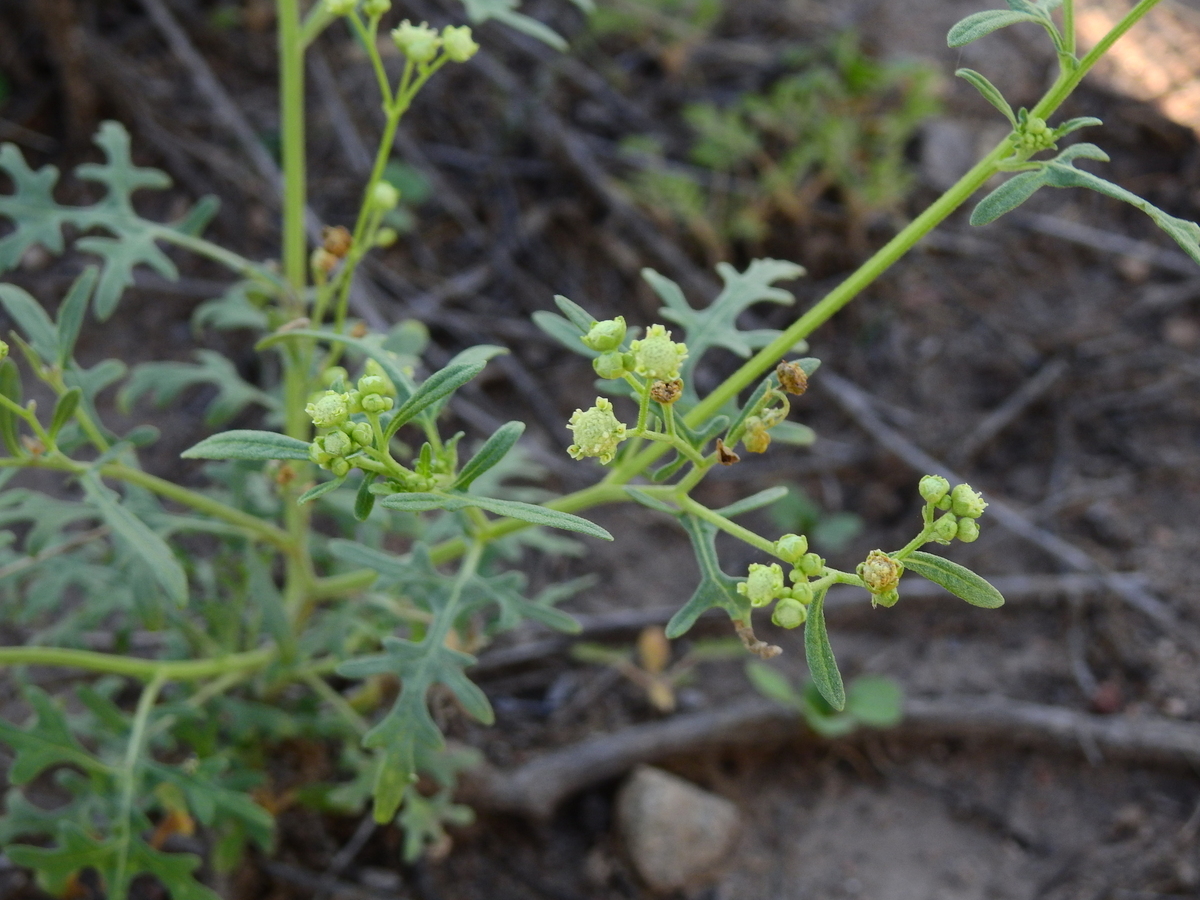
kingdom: Plantae
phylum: Tracheophyta
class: Magnoliopsida
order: Asterales
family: Asteraceae
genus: Parthenium
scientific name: Parthenium hysterophorus
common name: Santa maria feverfew
